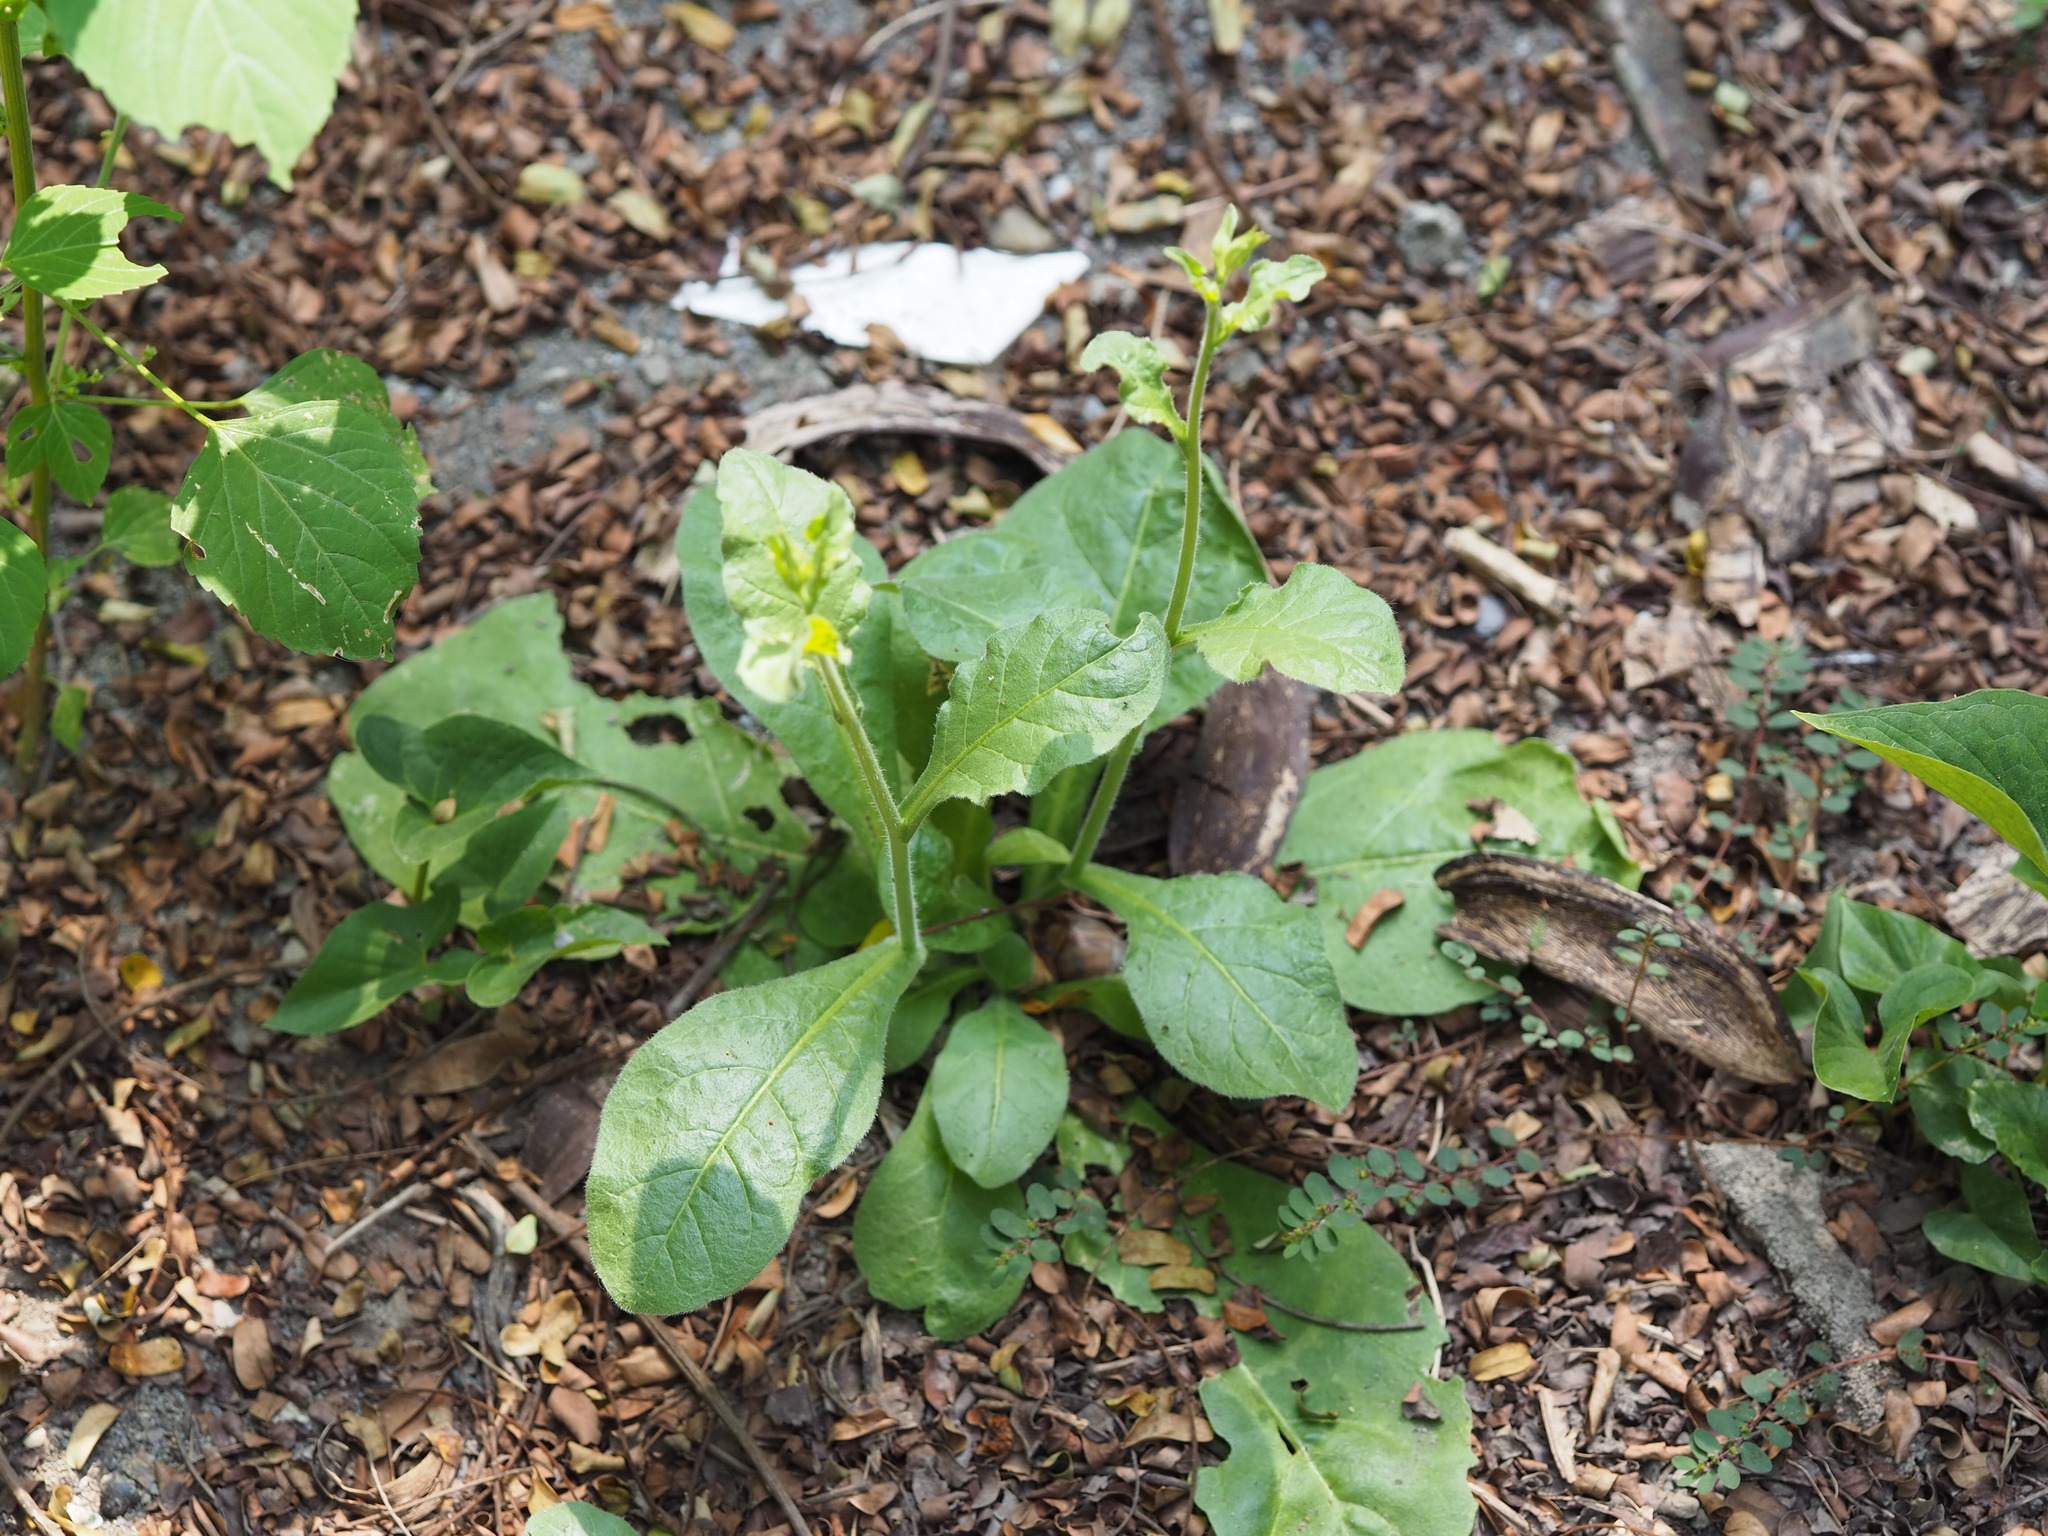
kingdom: Plantae
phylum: Tracheophyta
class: Magnoliopsida
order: Solanales
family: Solanaceae
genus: Nicotiana
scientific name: Nicotiana plumbaginifolia
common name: Tex-mex tobacco
